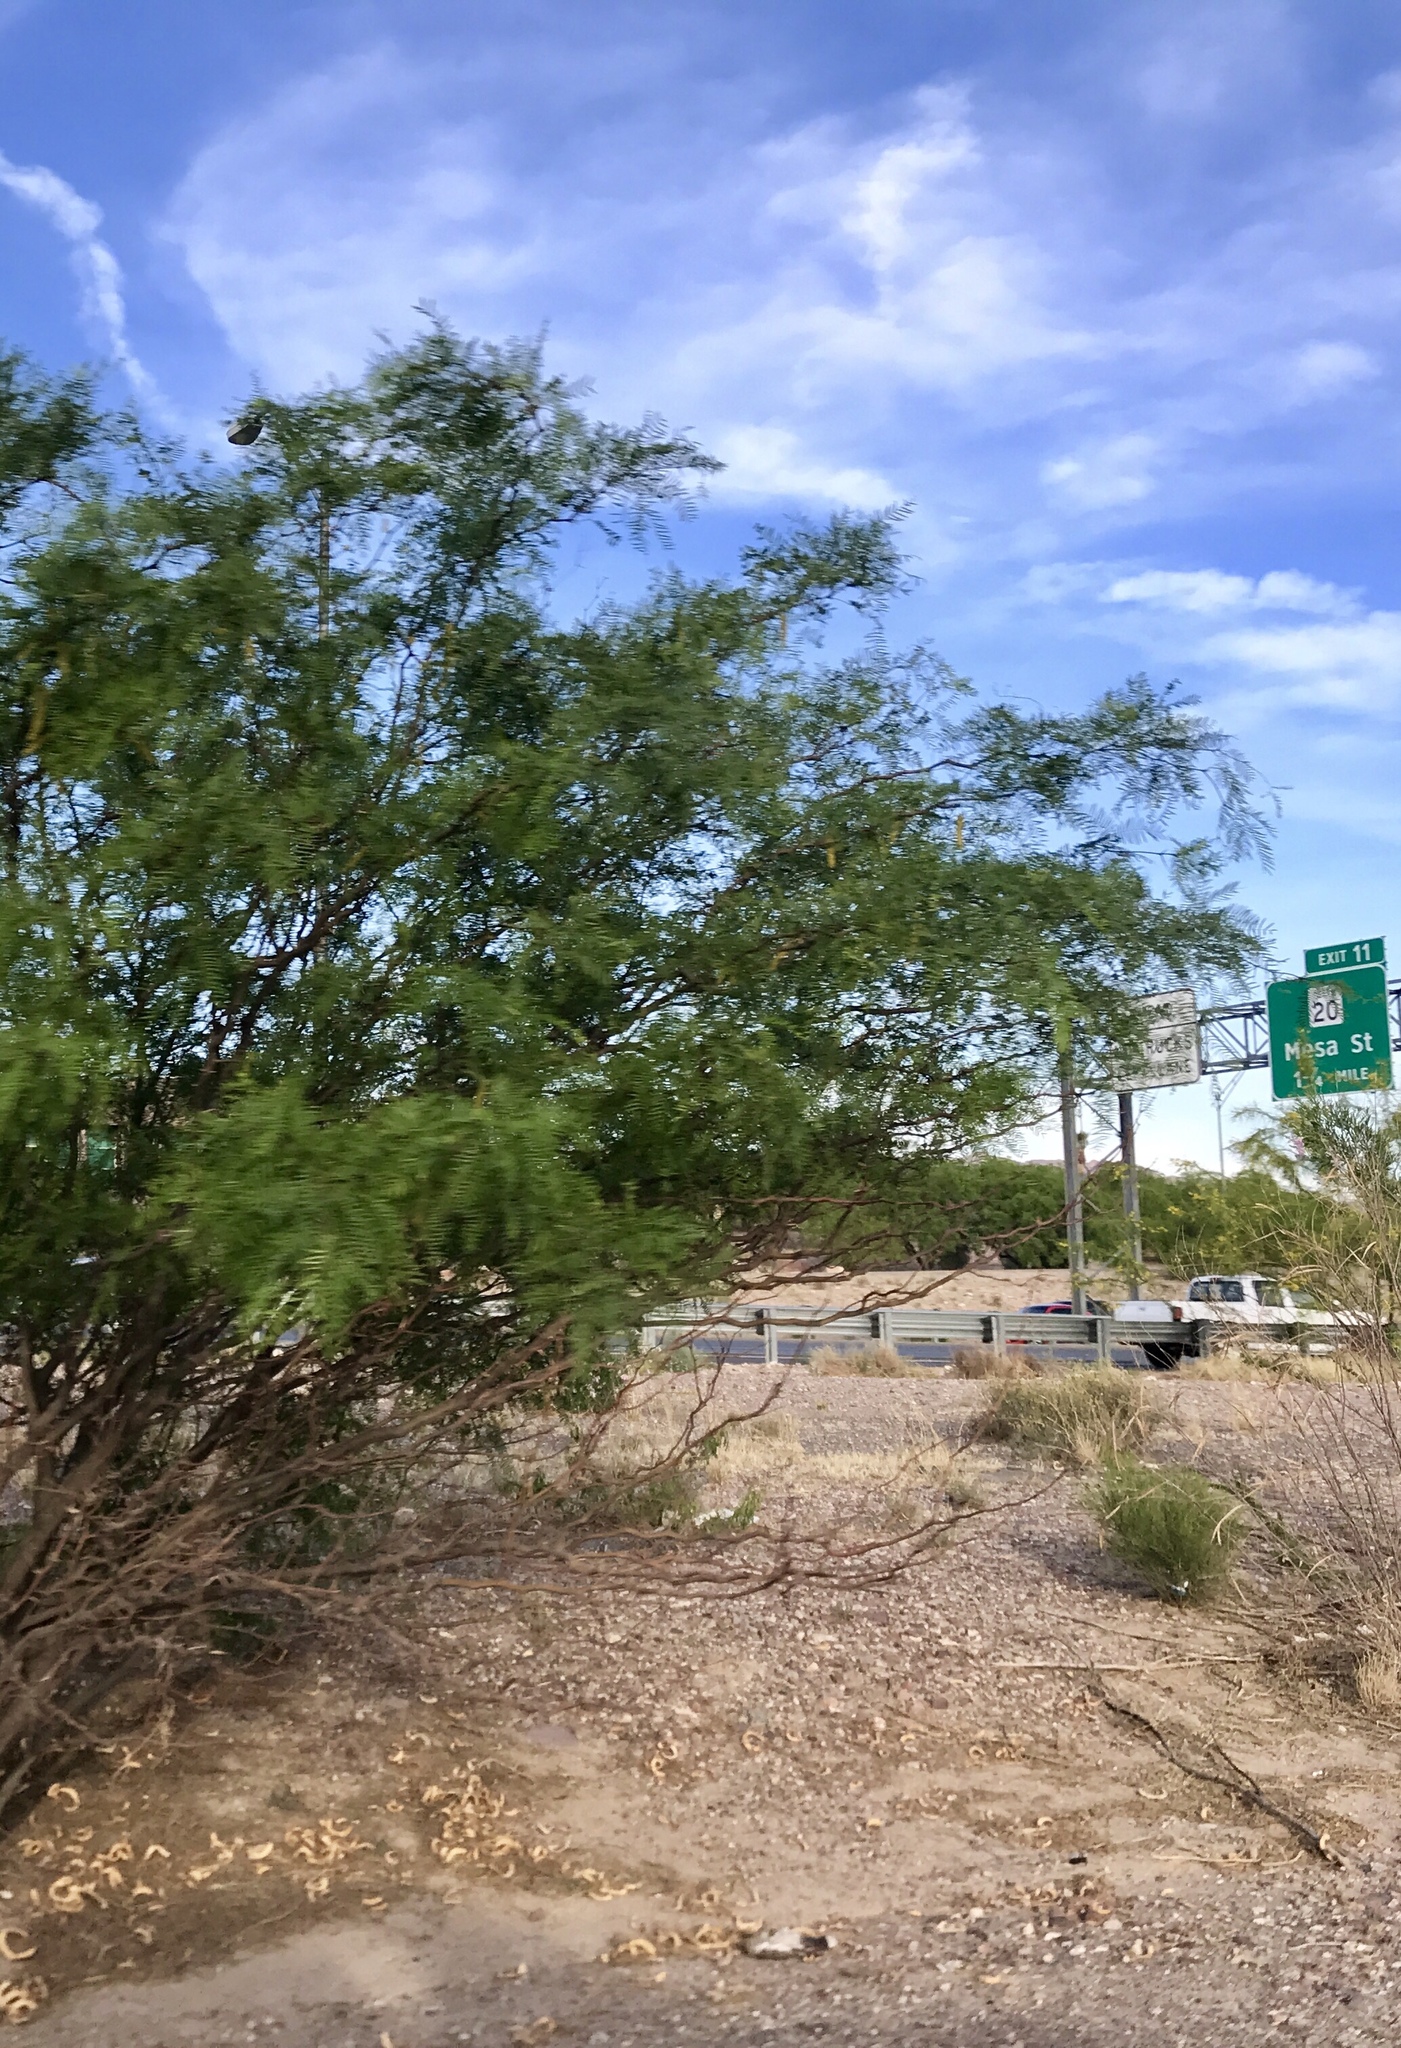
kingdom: Plantae
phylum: Tracheophyta
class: Magnoliopsida
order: Fabales
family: Fabaceae
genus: Prosopis
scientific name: Prosopis glandulosa
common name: Honey mesquite
